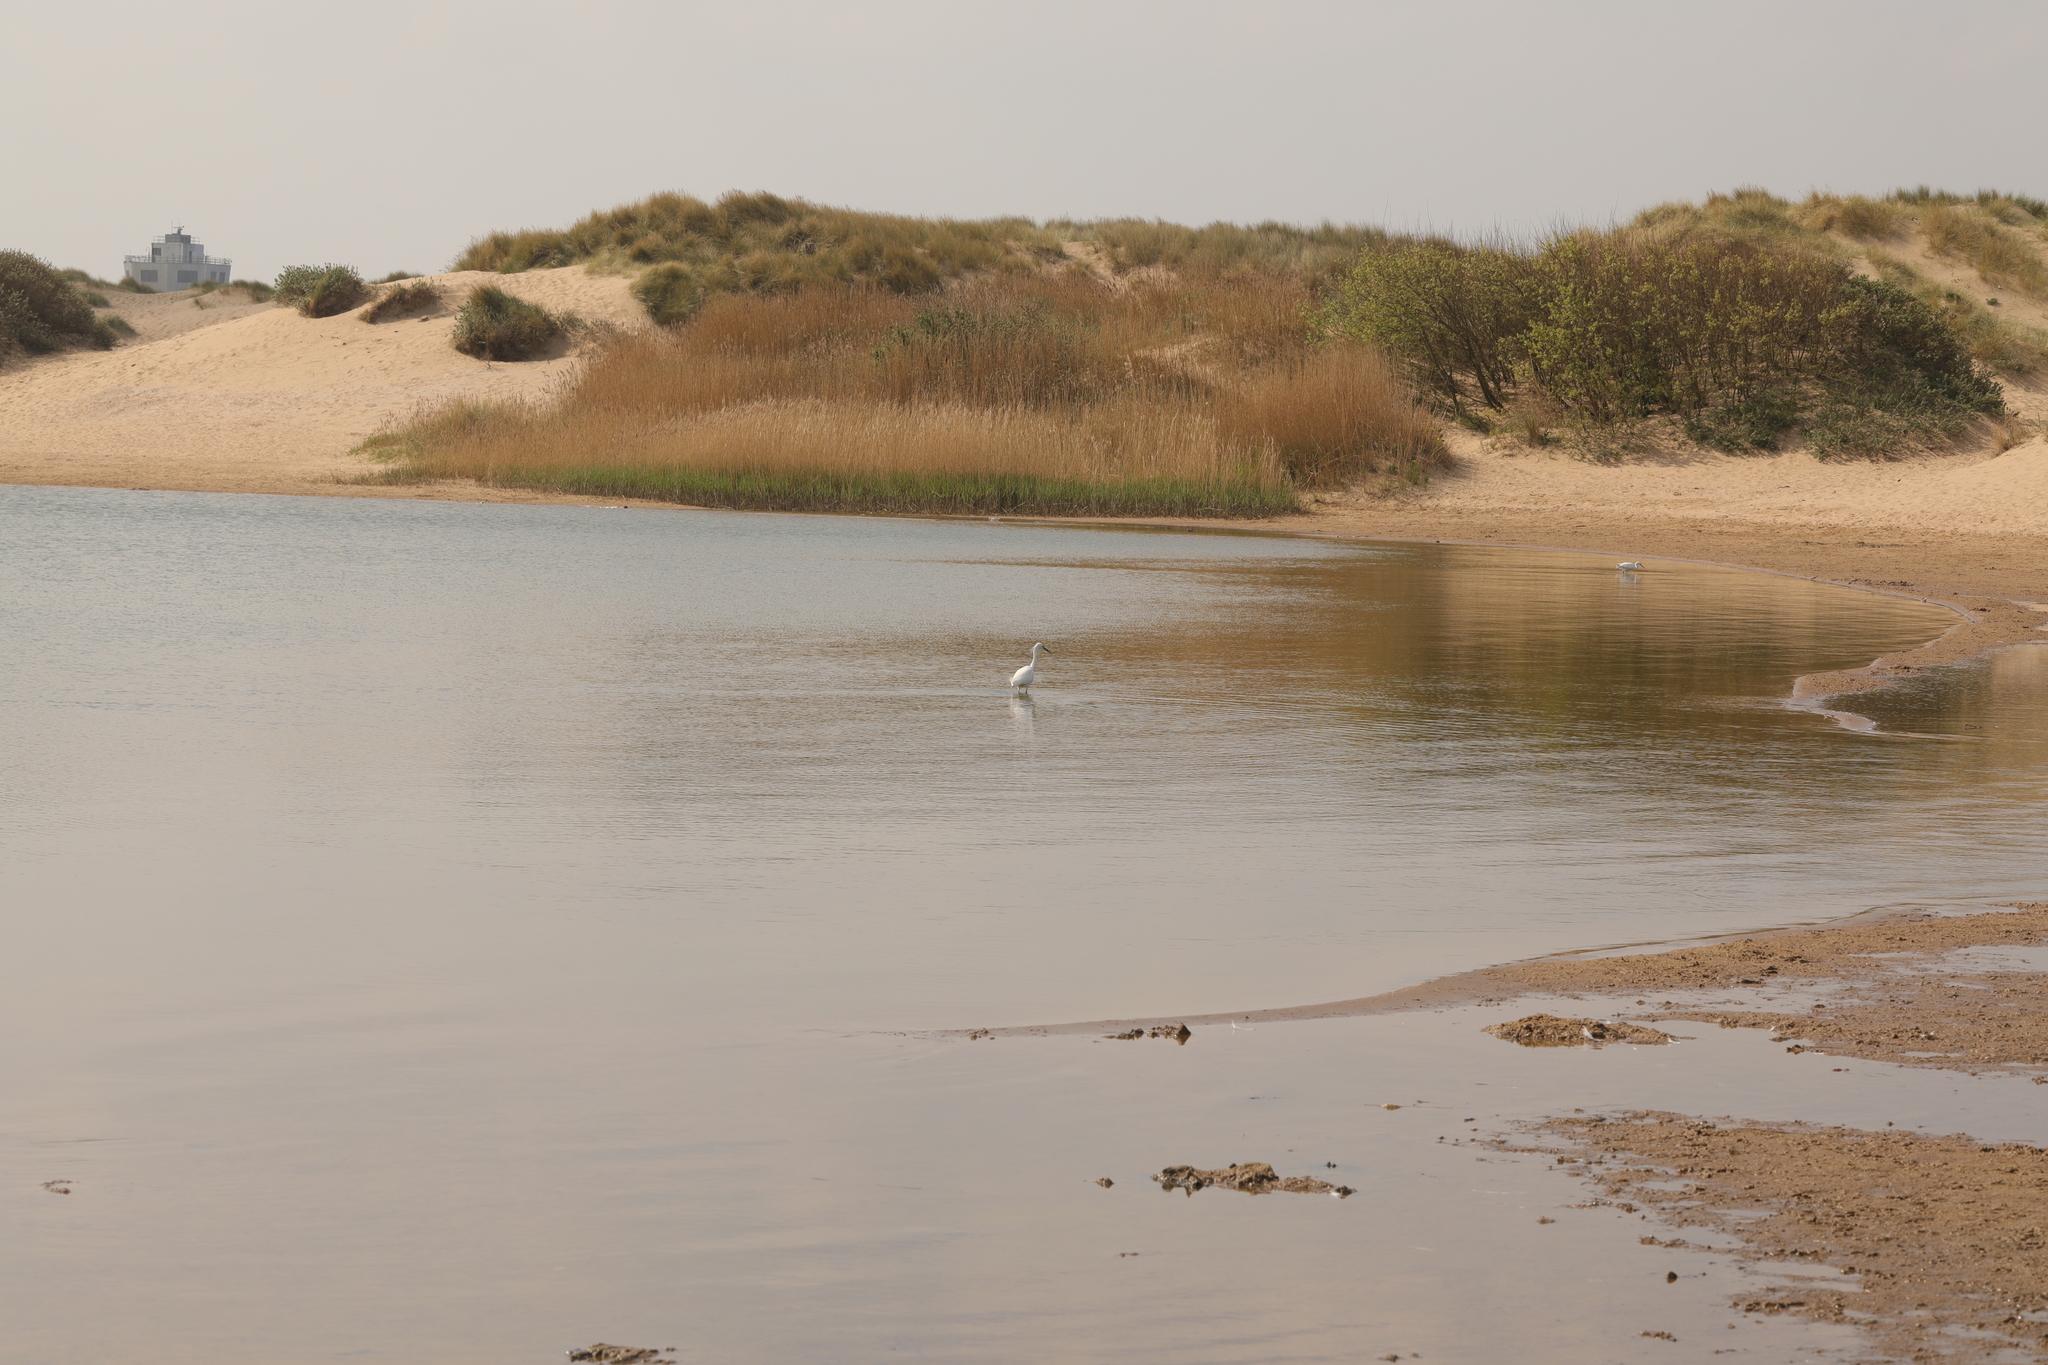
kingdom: Animalia
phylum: Chordata
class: Aves
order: Pelecaniformes
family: Ardeidae
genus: Egretta
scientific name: Egretta garzetta
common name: Little egret
